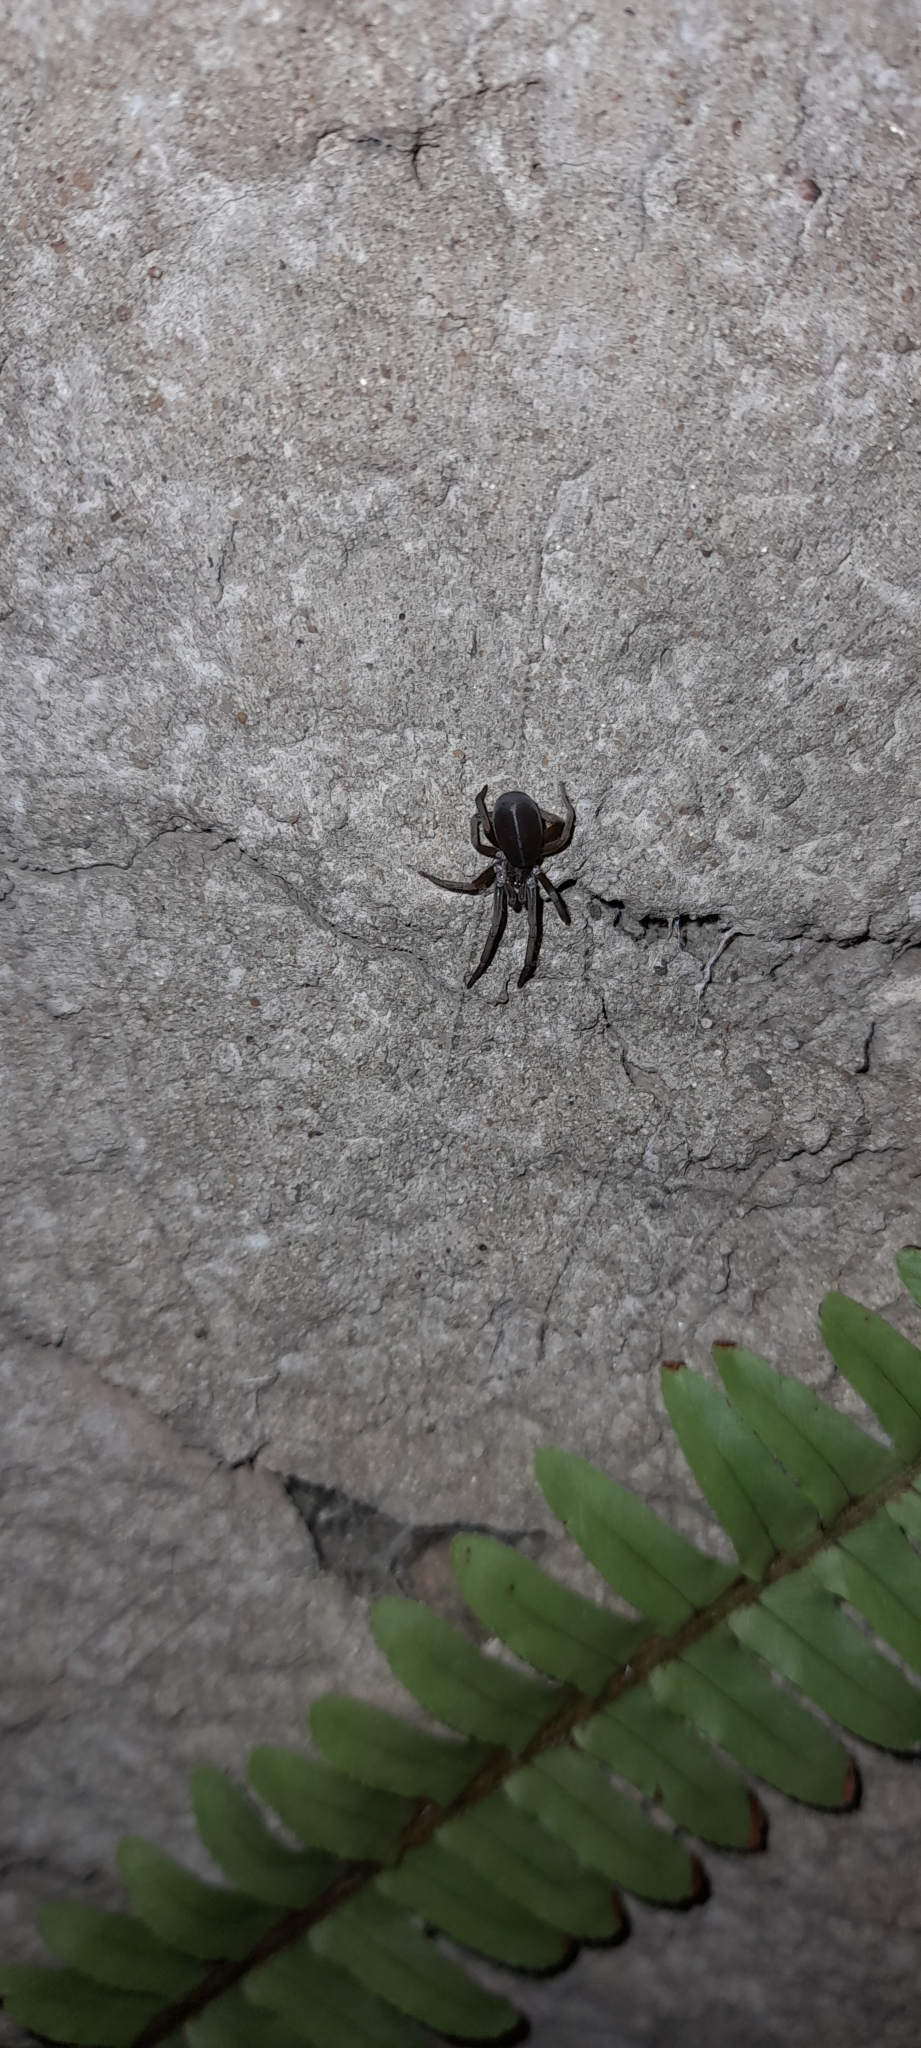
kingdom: Animalia
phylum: Arthropoda
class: Arachnida
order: Araneae
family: Filistatidae
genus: Kukulcania
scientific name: Kukulcania hibernalis
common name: Crevice weaver
